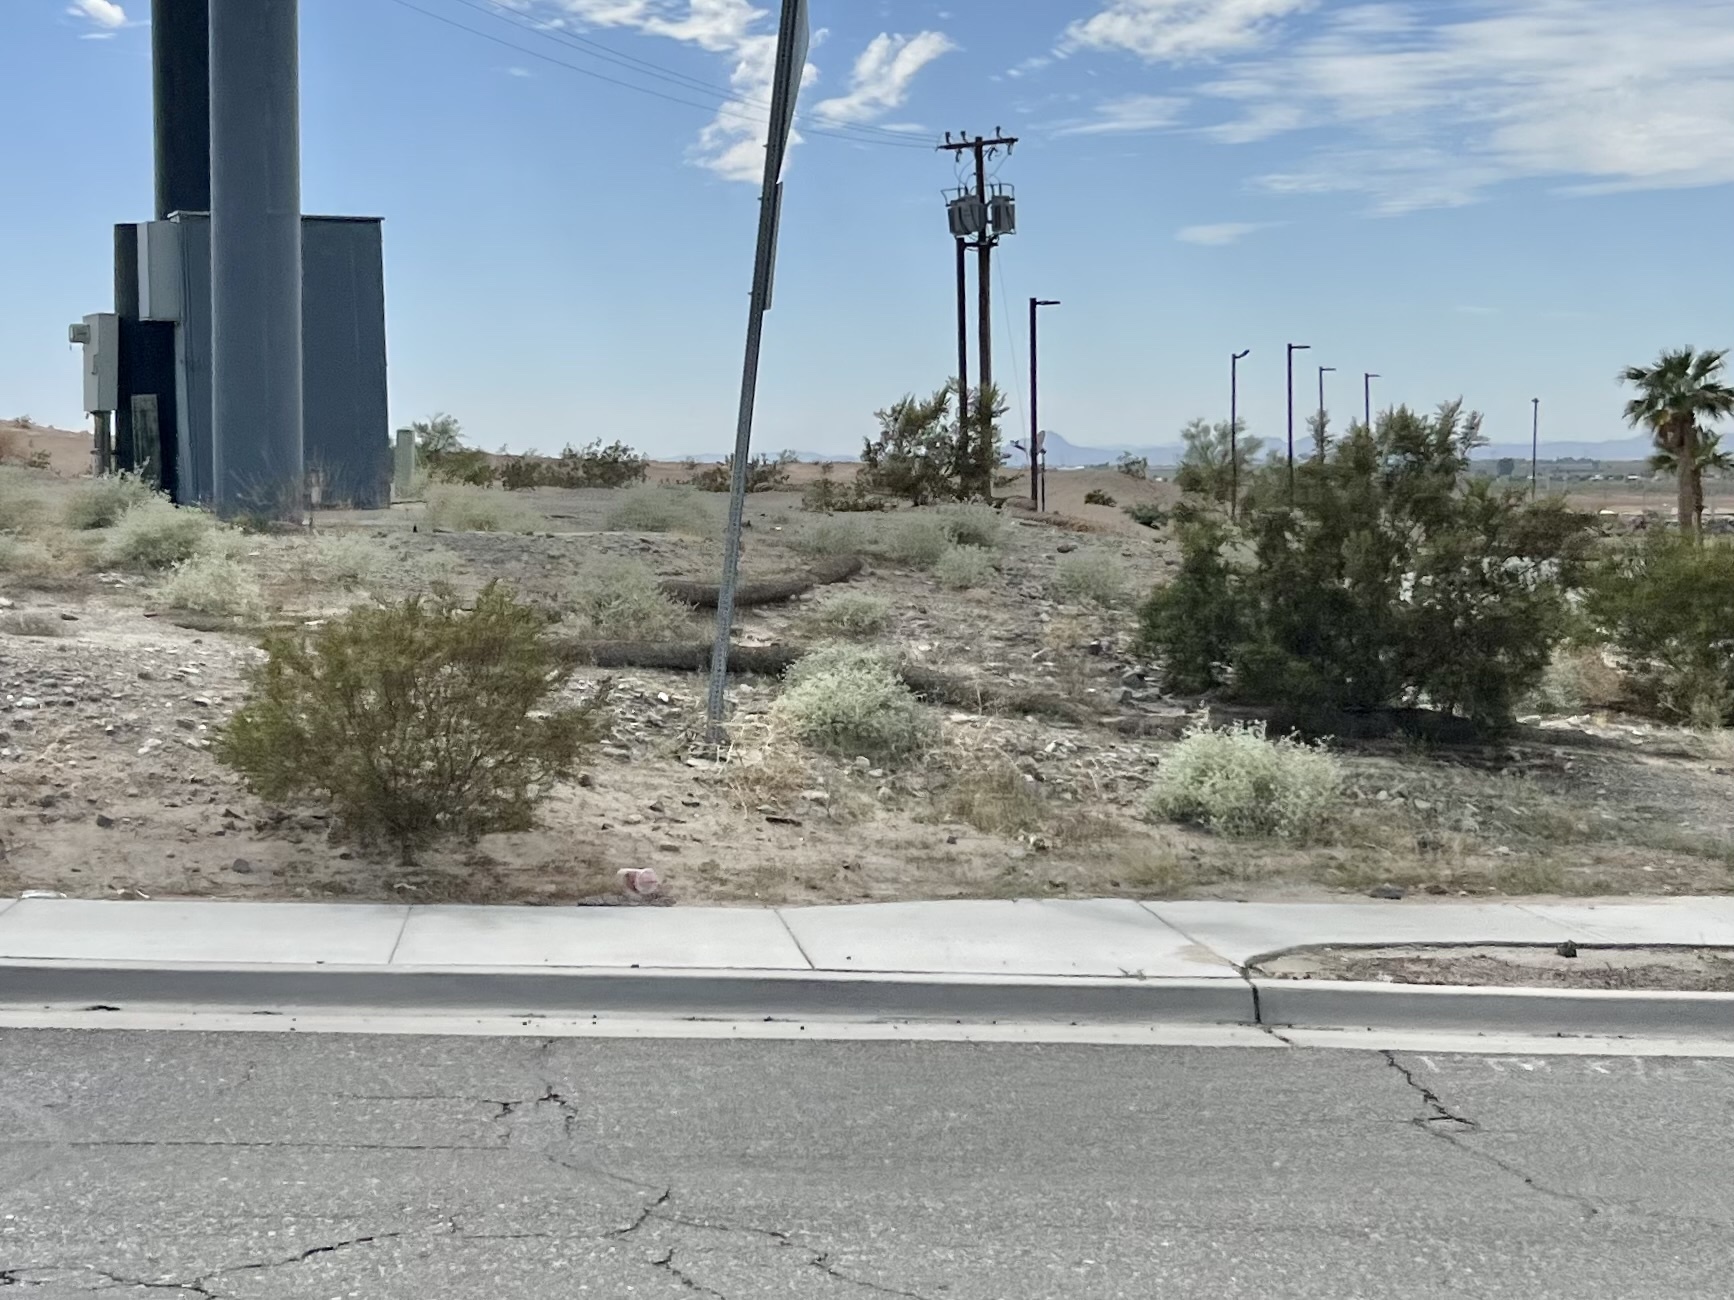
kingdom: Plantae
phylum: Tracheophyta
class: Magnoliopsida
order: Zygophyllales
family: Zygophyllaceae
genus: Larrea
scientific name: Larrea tridentata
